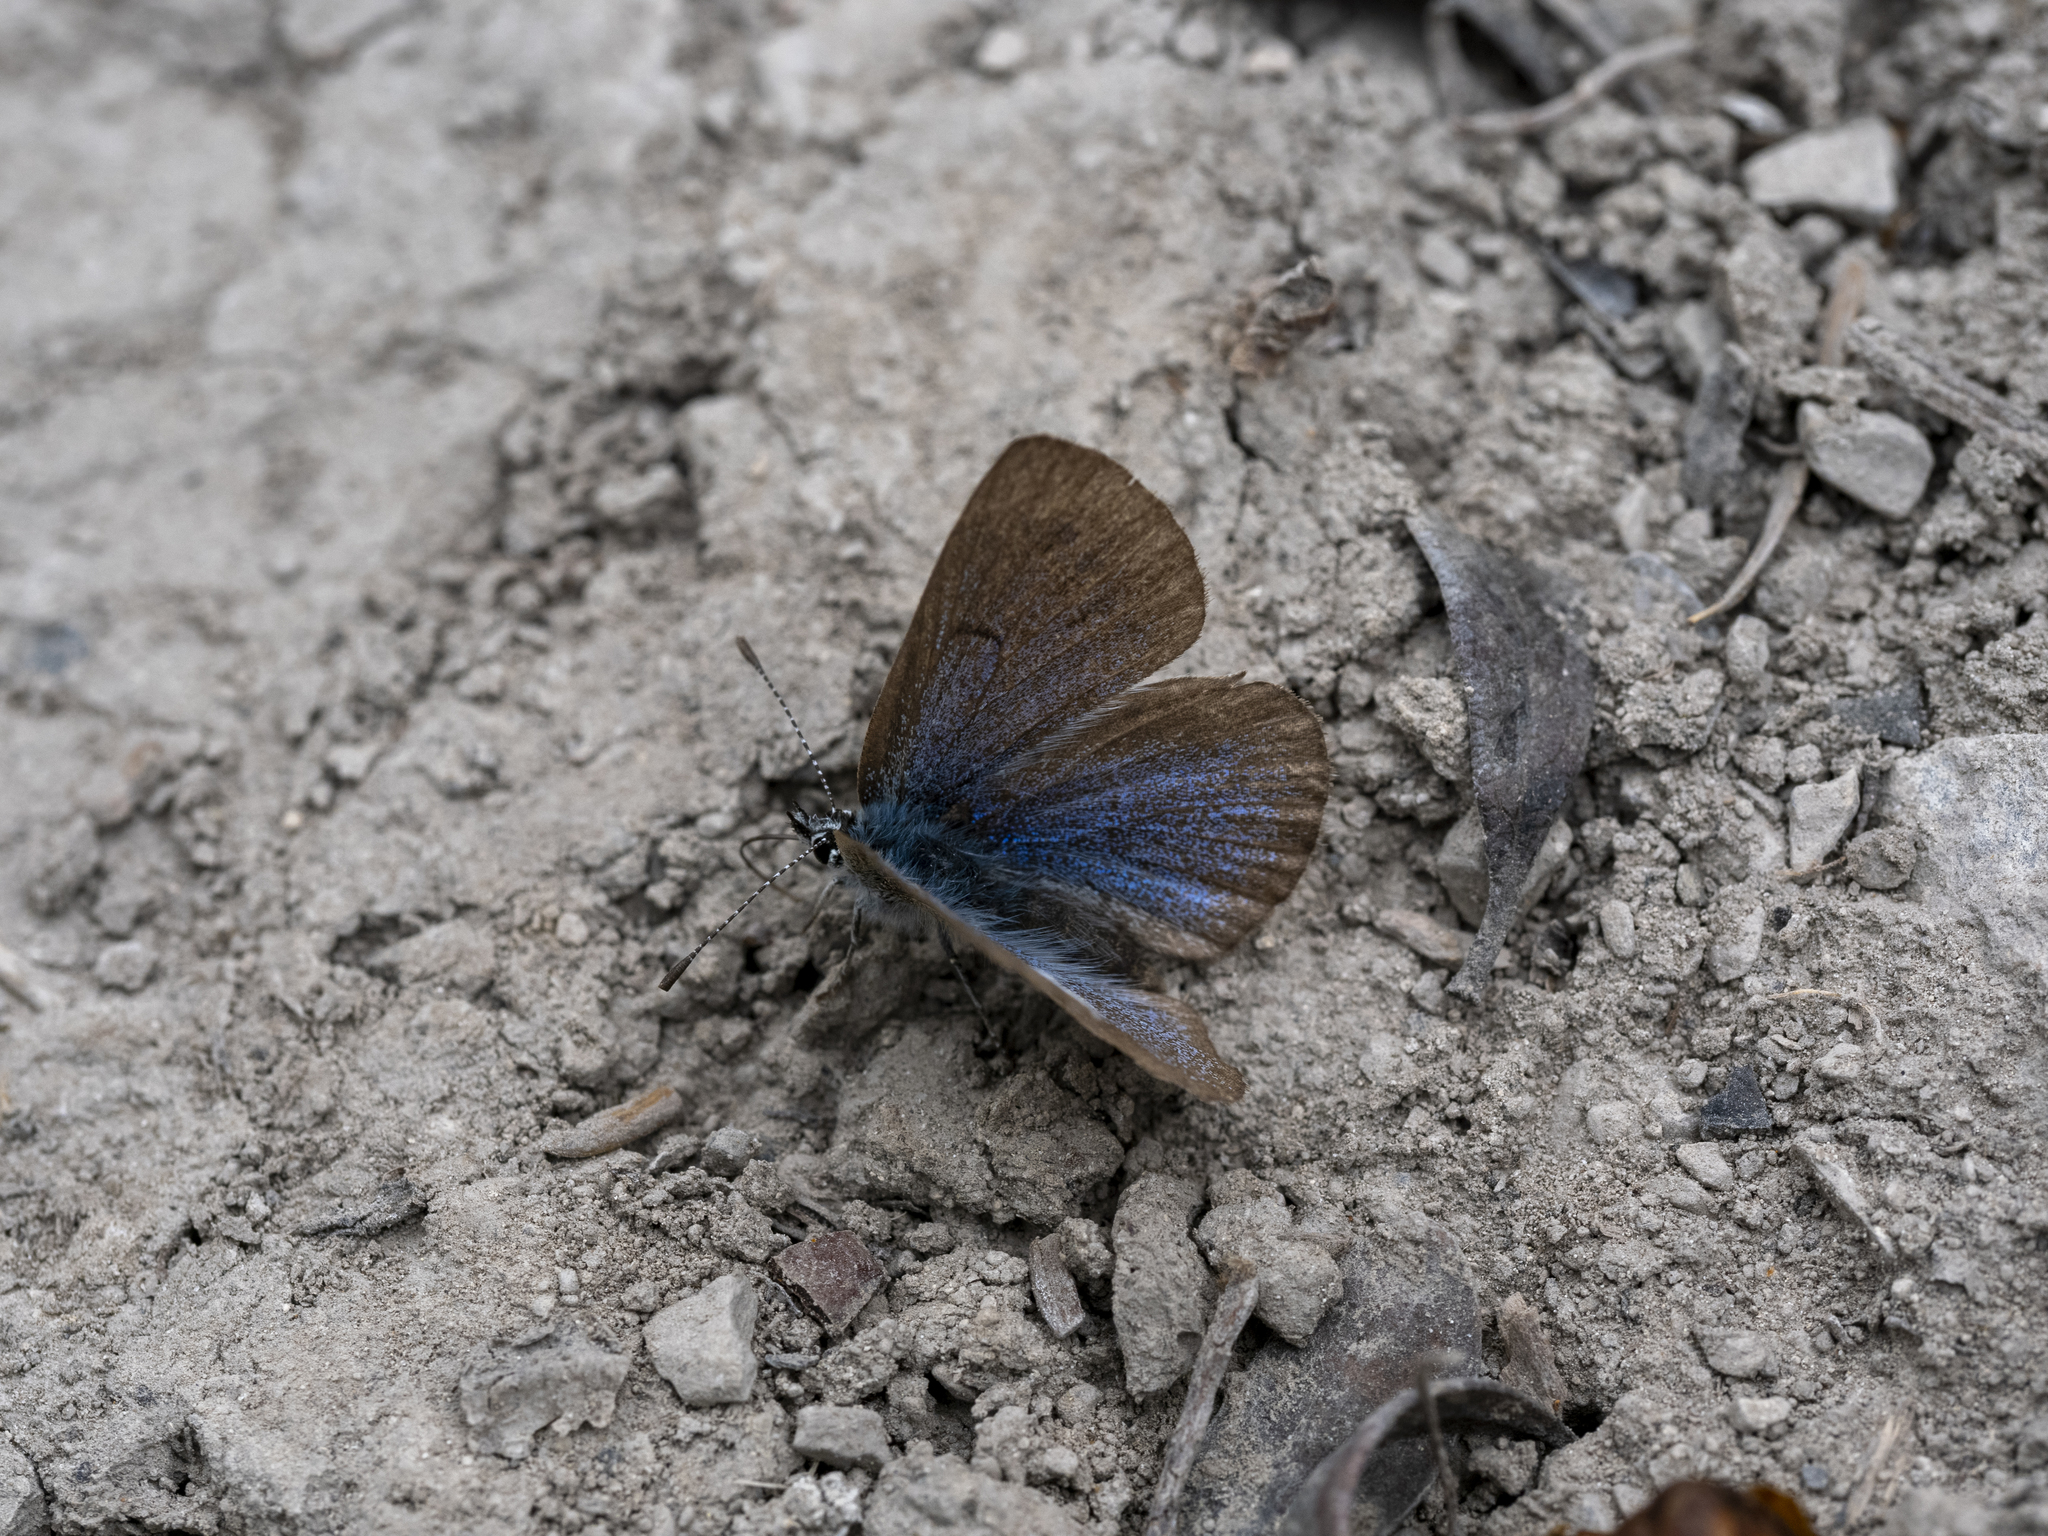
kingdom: Animalia
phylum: Arthropoda
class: Insecta
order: Lepidoptera
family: Lycaenidae
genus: Lycaeides
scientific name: Lycaeides idas
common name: Northern blue
